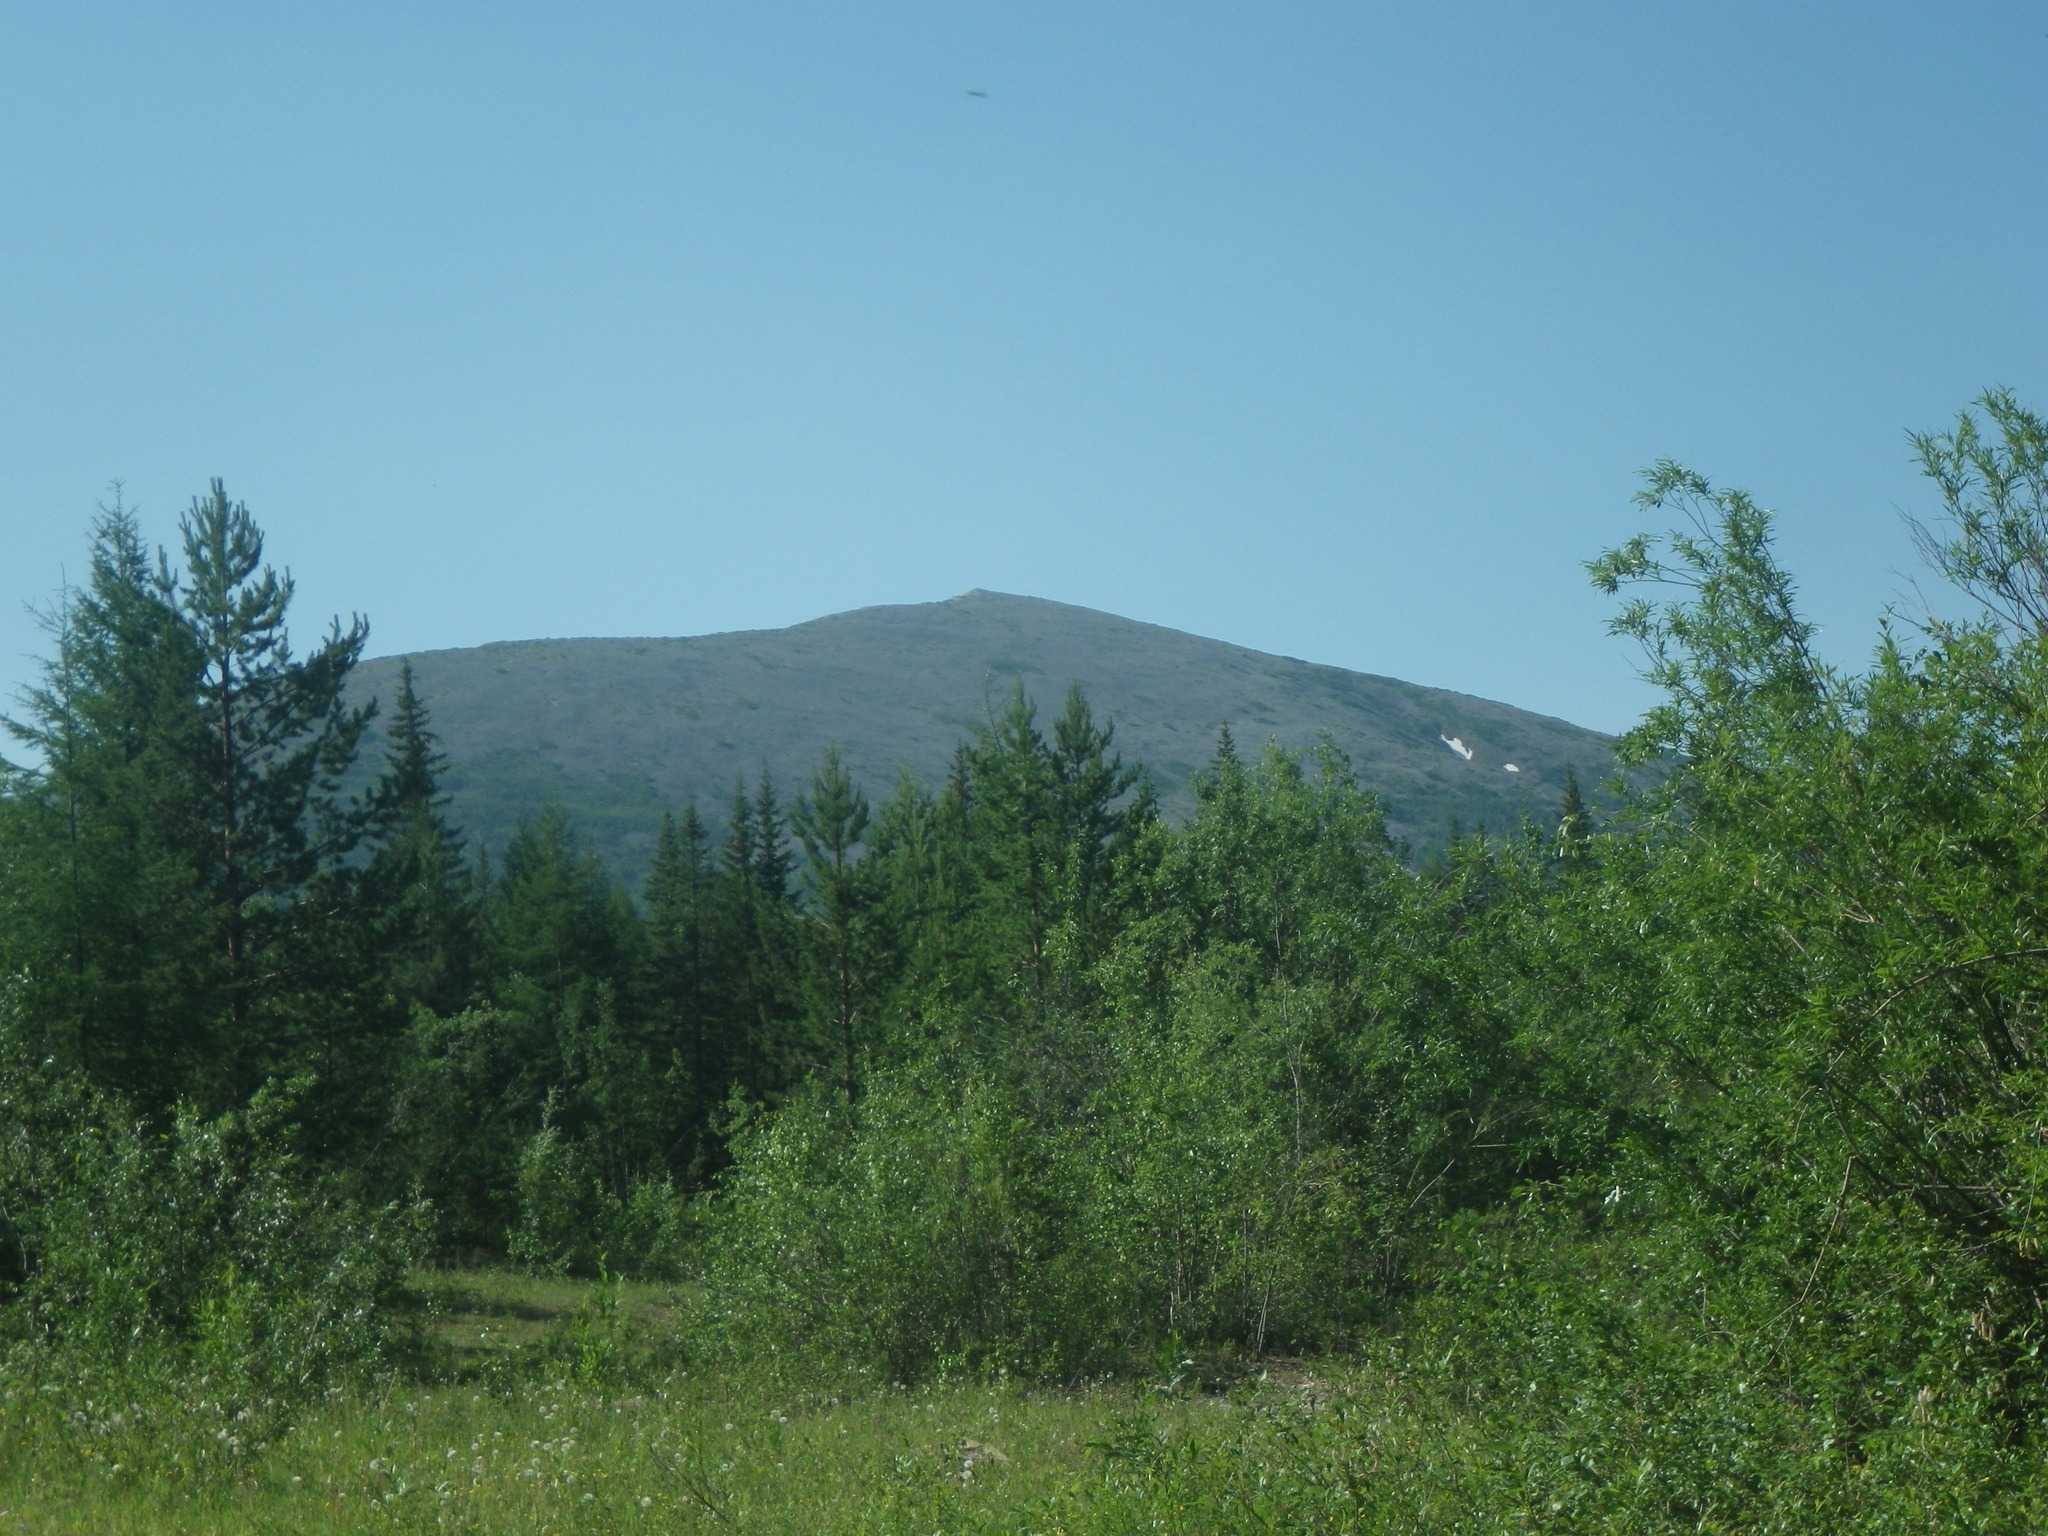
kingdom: Plantae
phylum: Tracheophyta
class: Pinopsida
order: Pinales
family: Pinaceae
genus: Picea
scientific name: Picea obovata
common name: Siberian spruce
